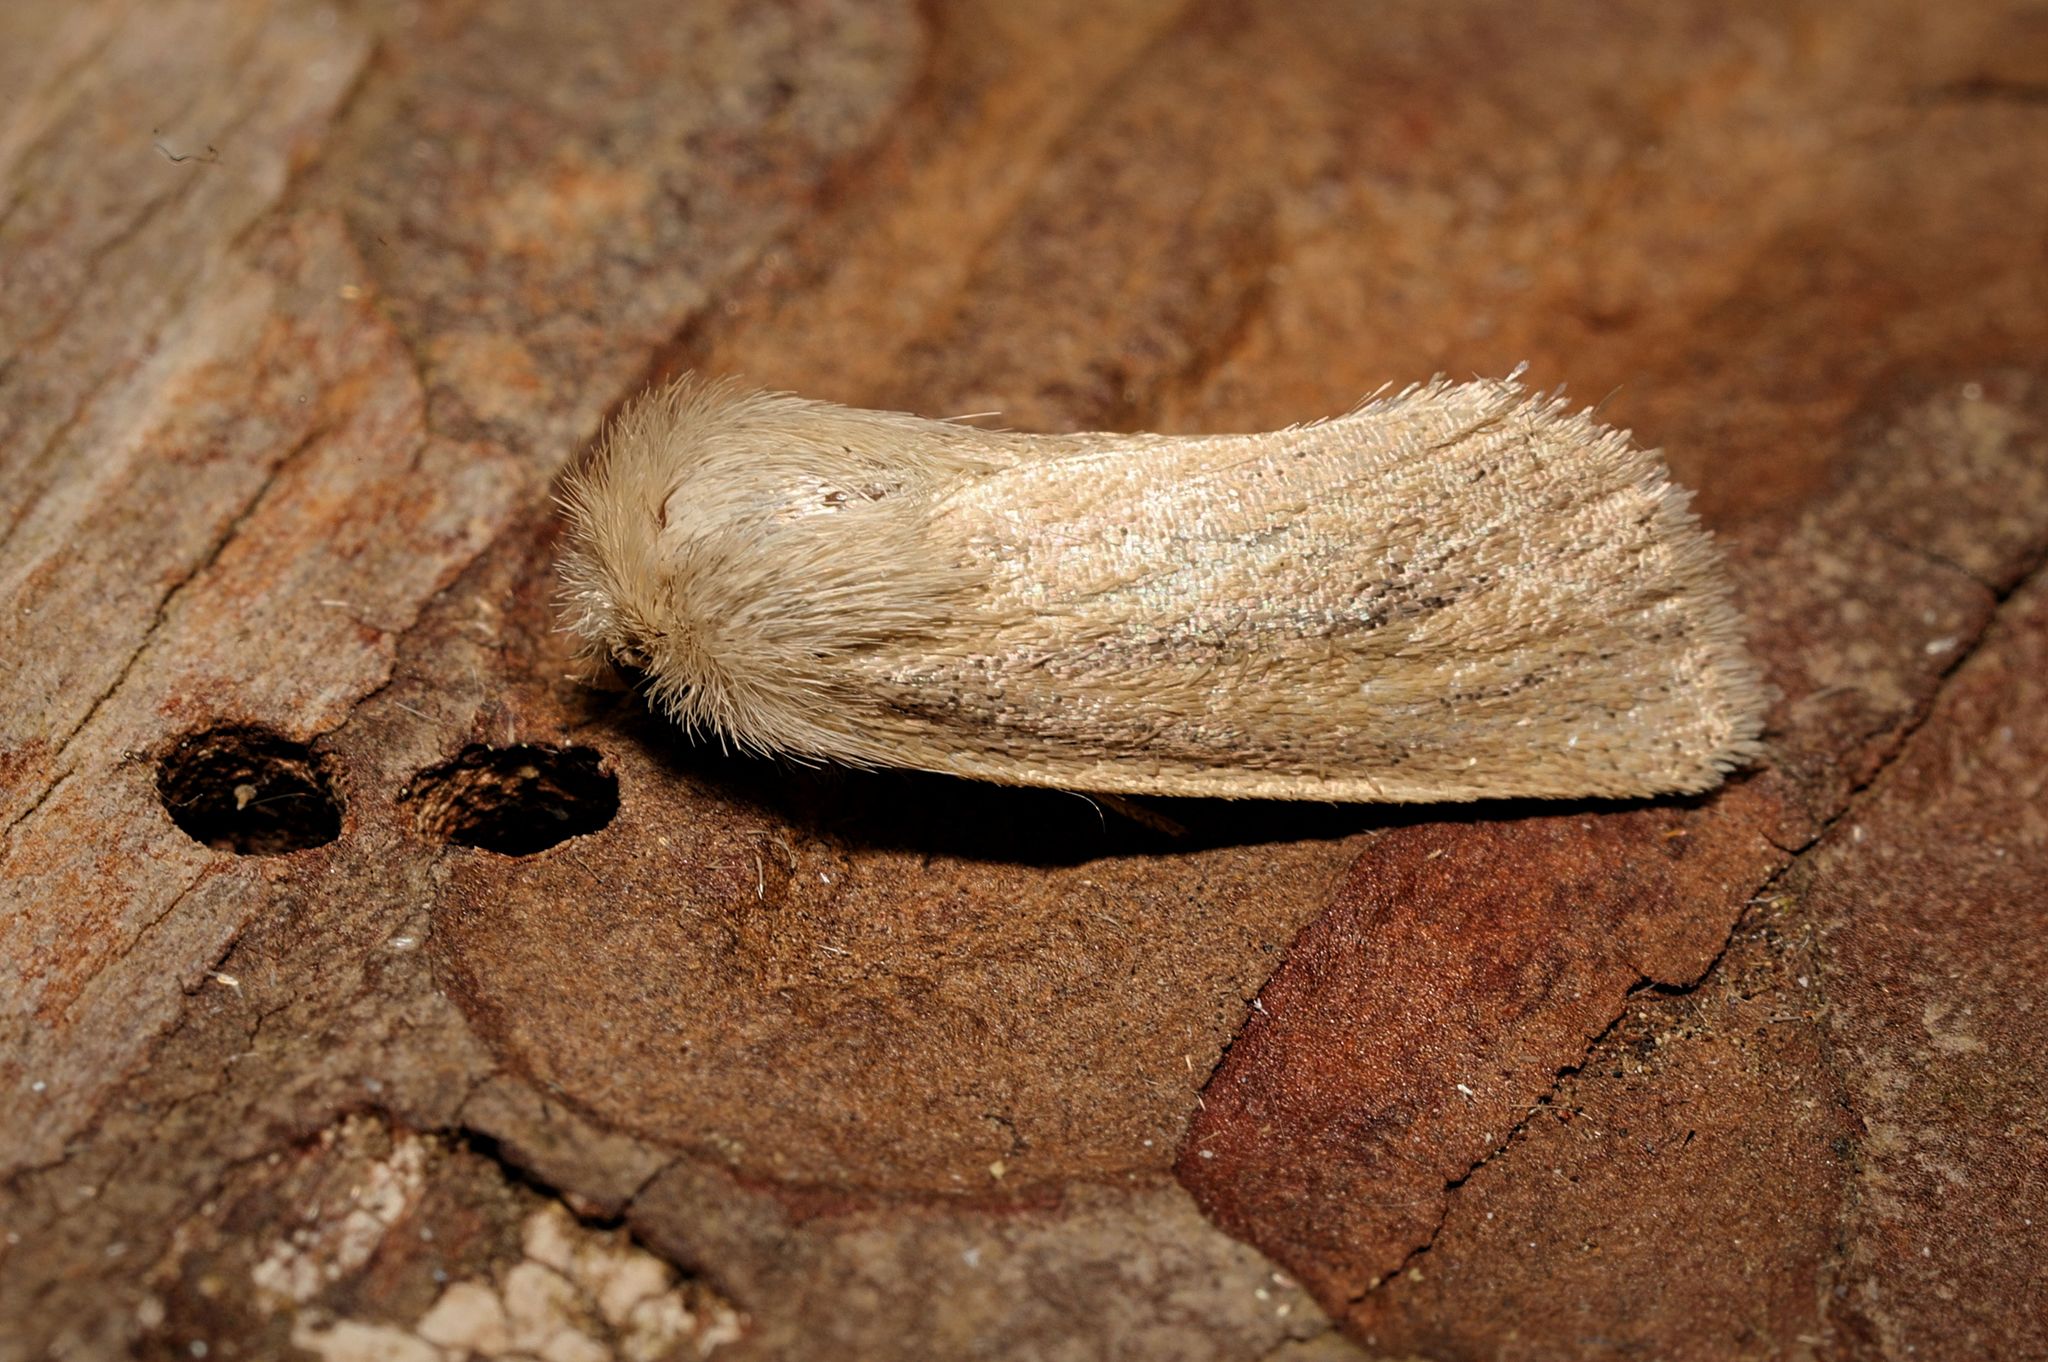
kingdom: Animalia
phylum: Arthropoda
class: Insecta
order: Lepidoptera
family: Noctuidae
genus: Denticucullus
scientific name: Denticucullus pygmina
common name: Small wainscot
